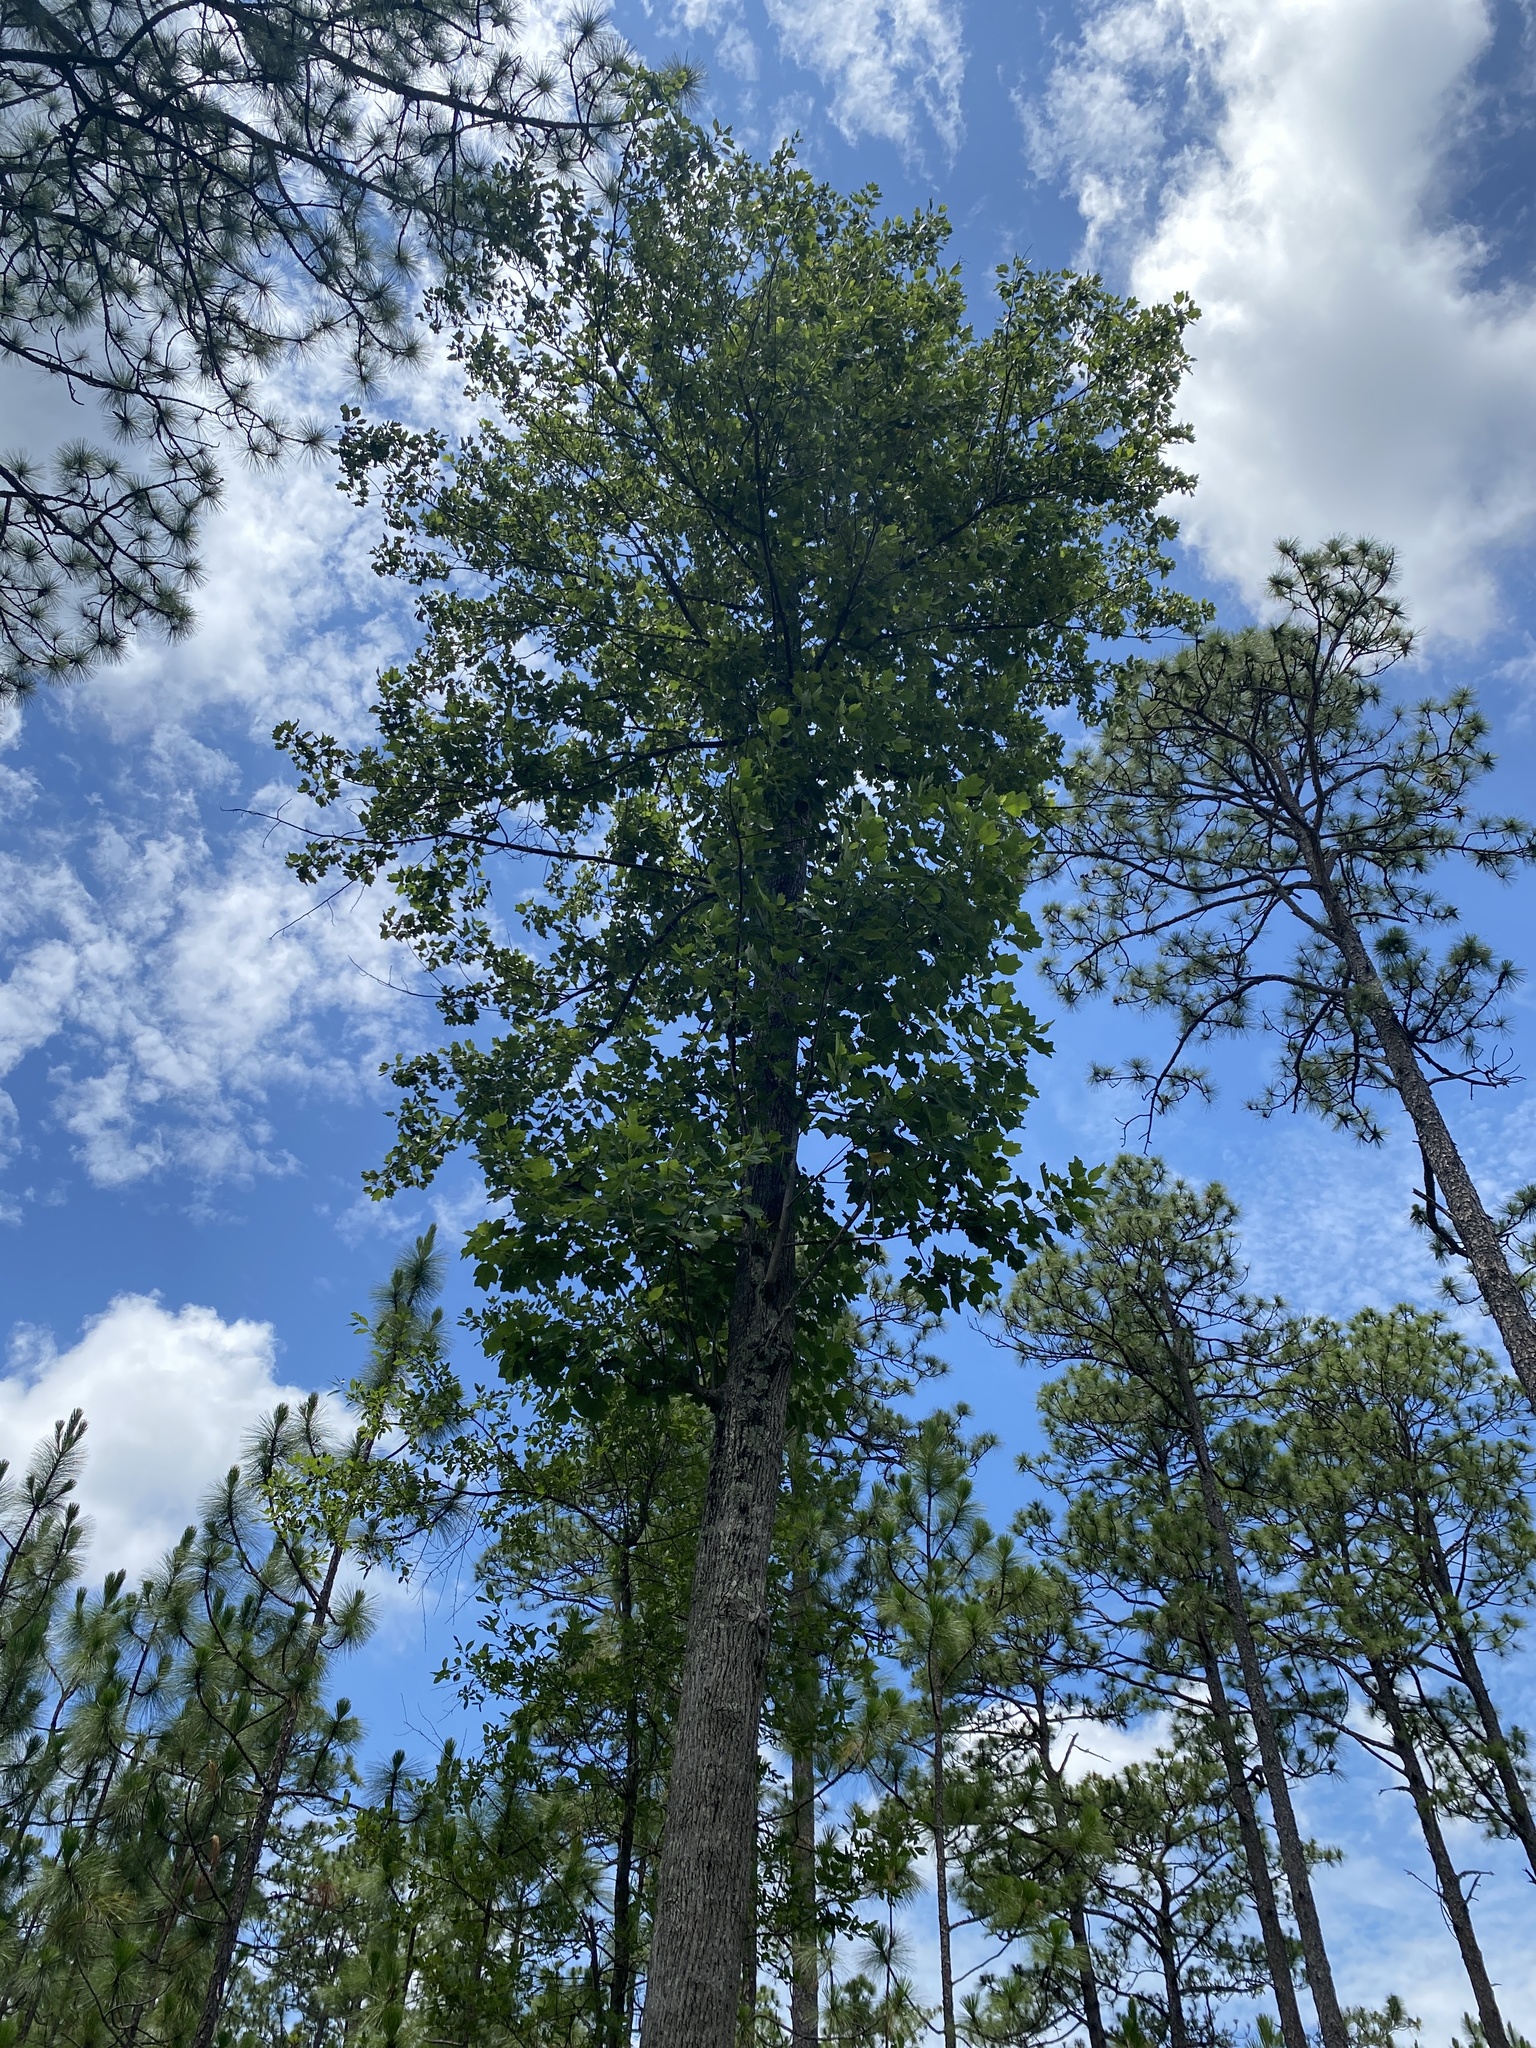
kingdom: Plantae
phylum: Tracheophyta
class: Magnoliopsida
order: Magnoliales
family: Magnoliaceae
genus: Liriodendron
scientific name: Liriodendron tulipifera
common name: Tulip tree
